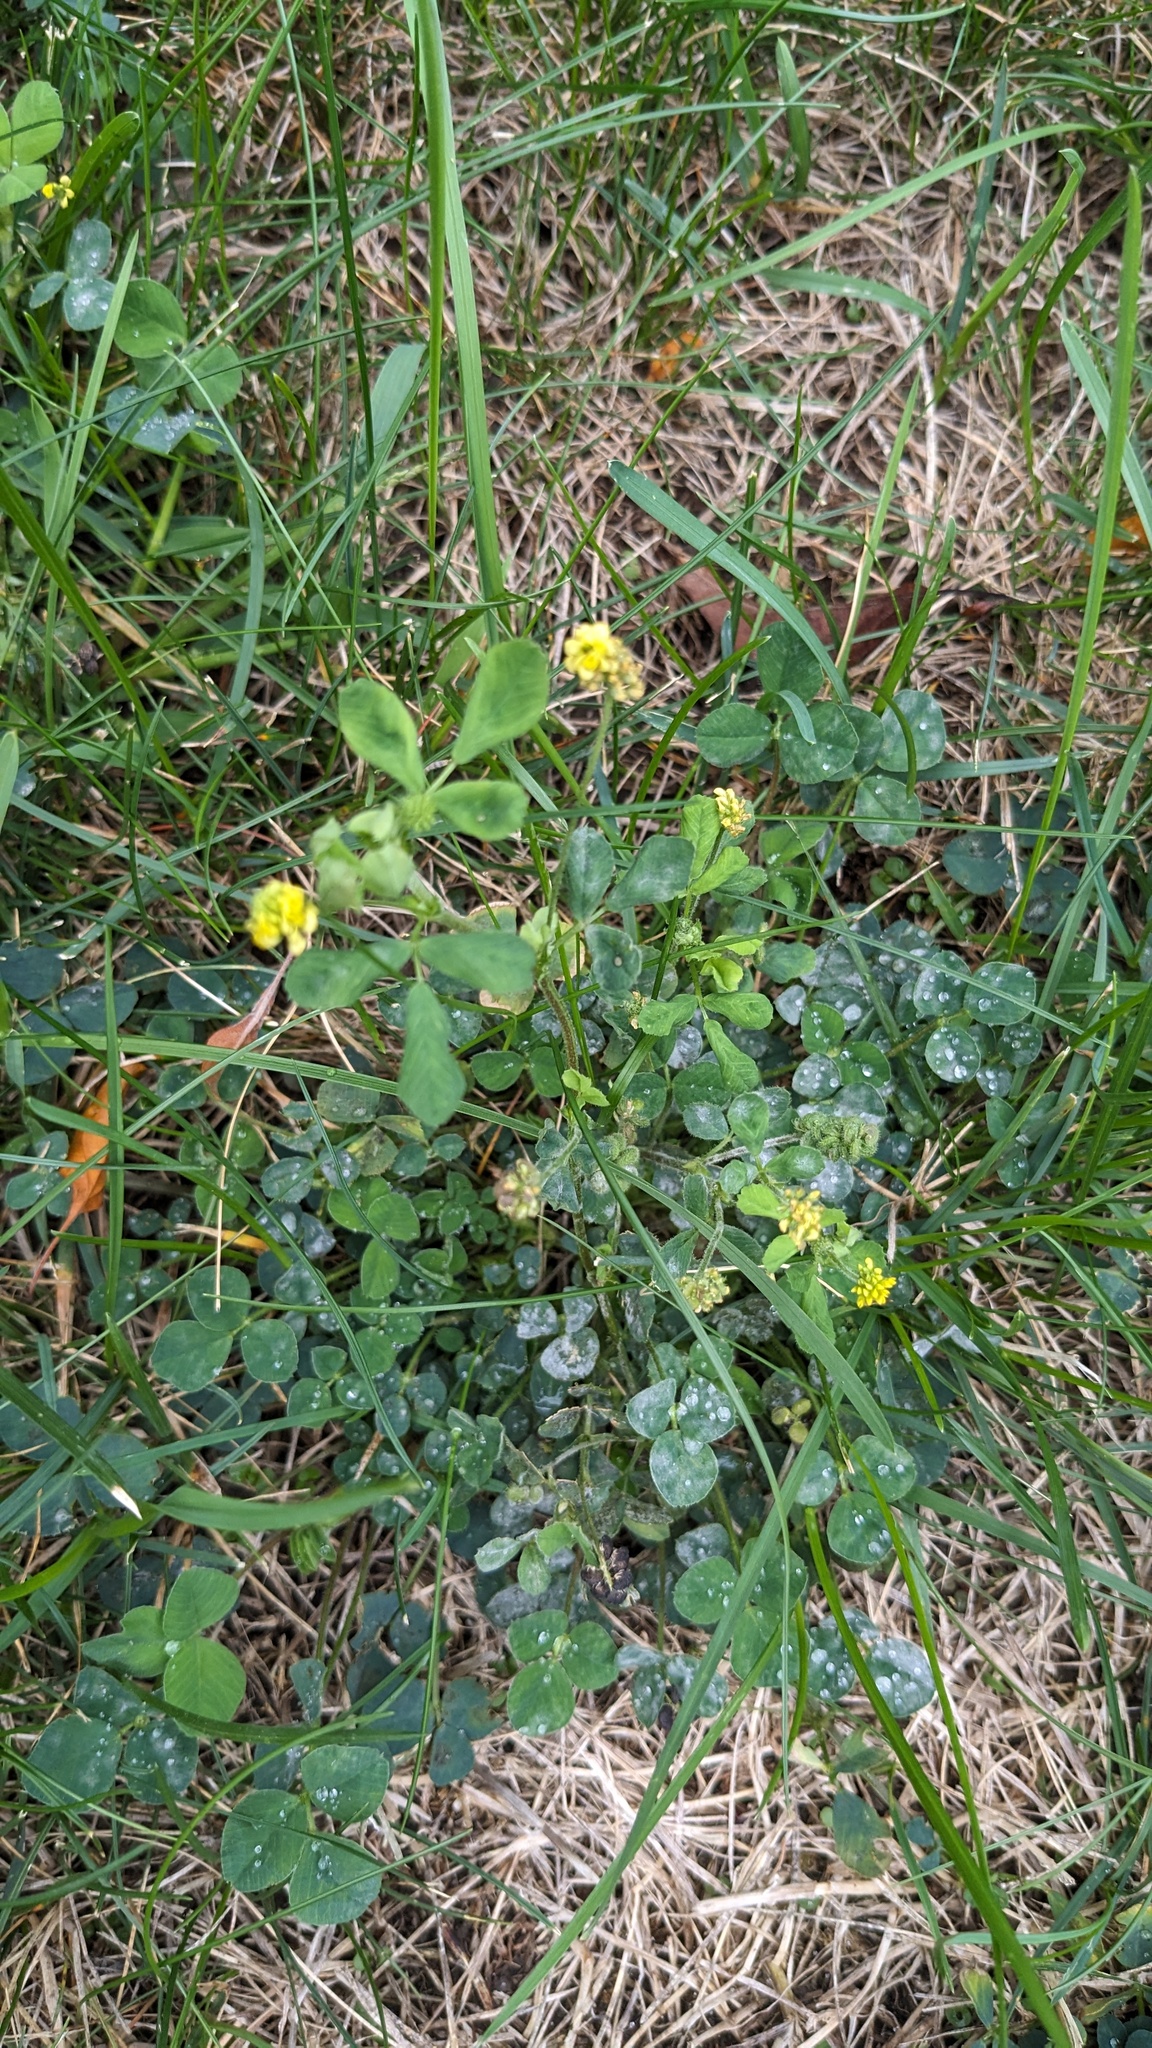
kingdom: Plantae
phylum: Tracheophyta
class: Magnoliopsida
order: Fabales
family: Fabaceae
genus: Medicago
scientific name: Medicago lupulina
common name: Black medick
